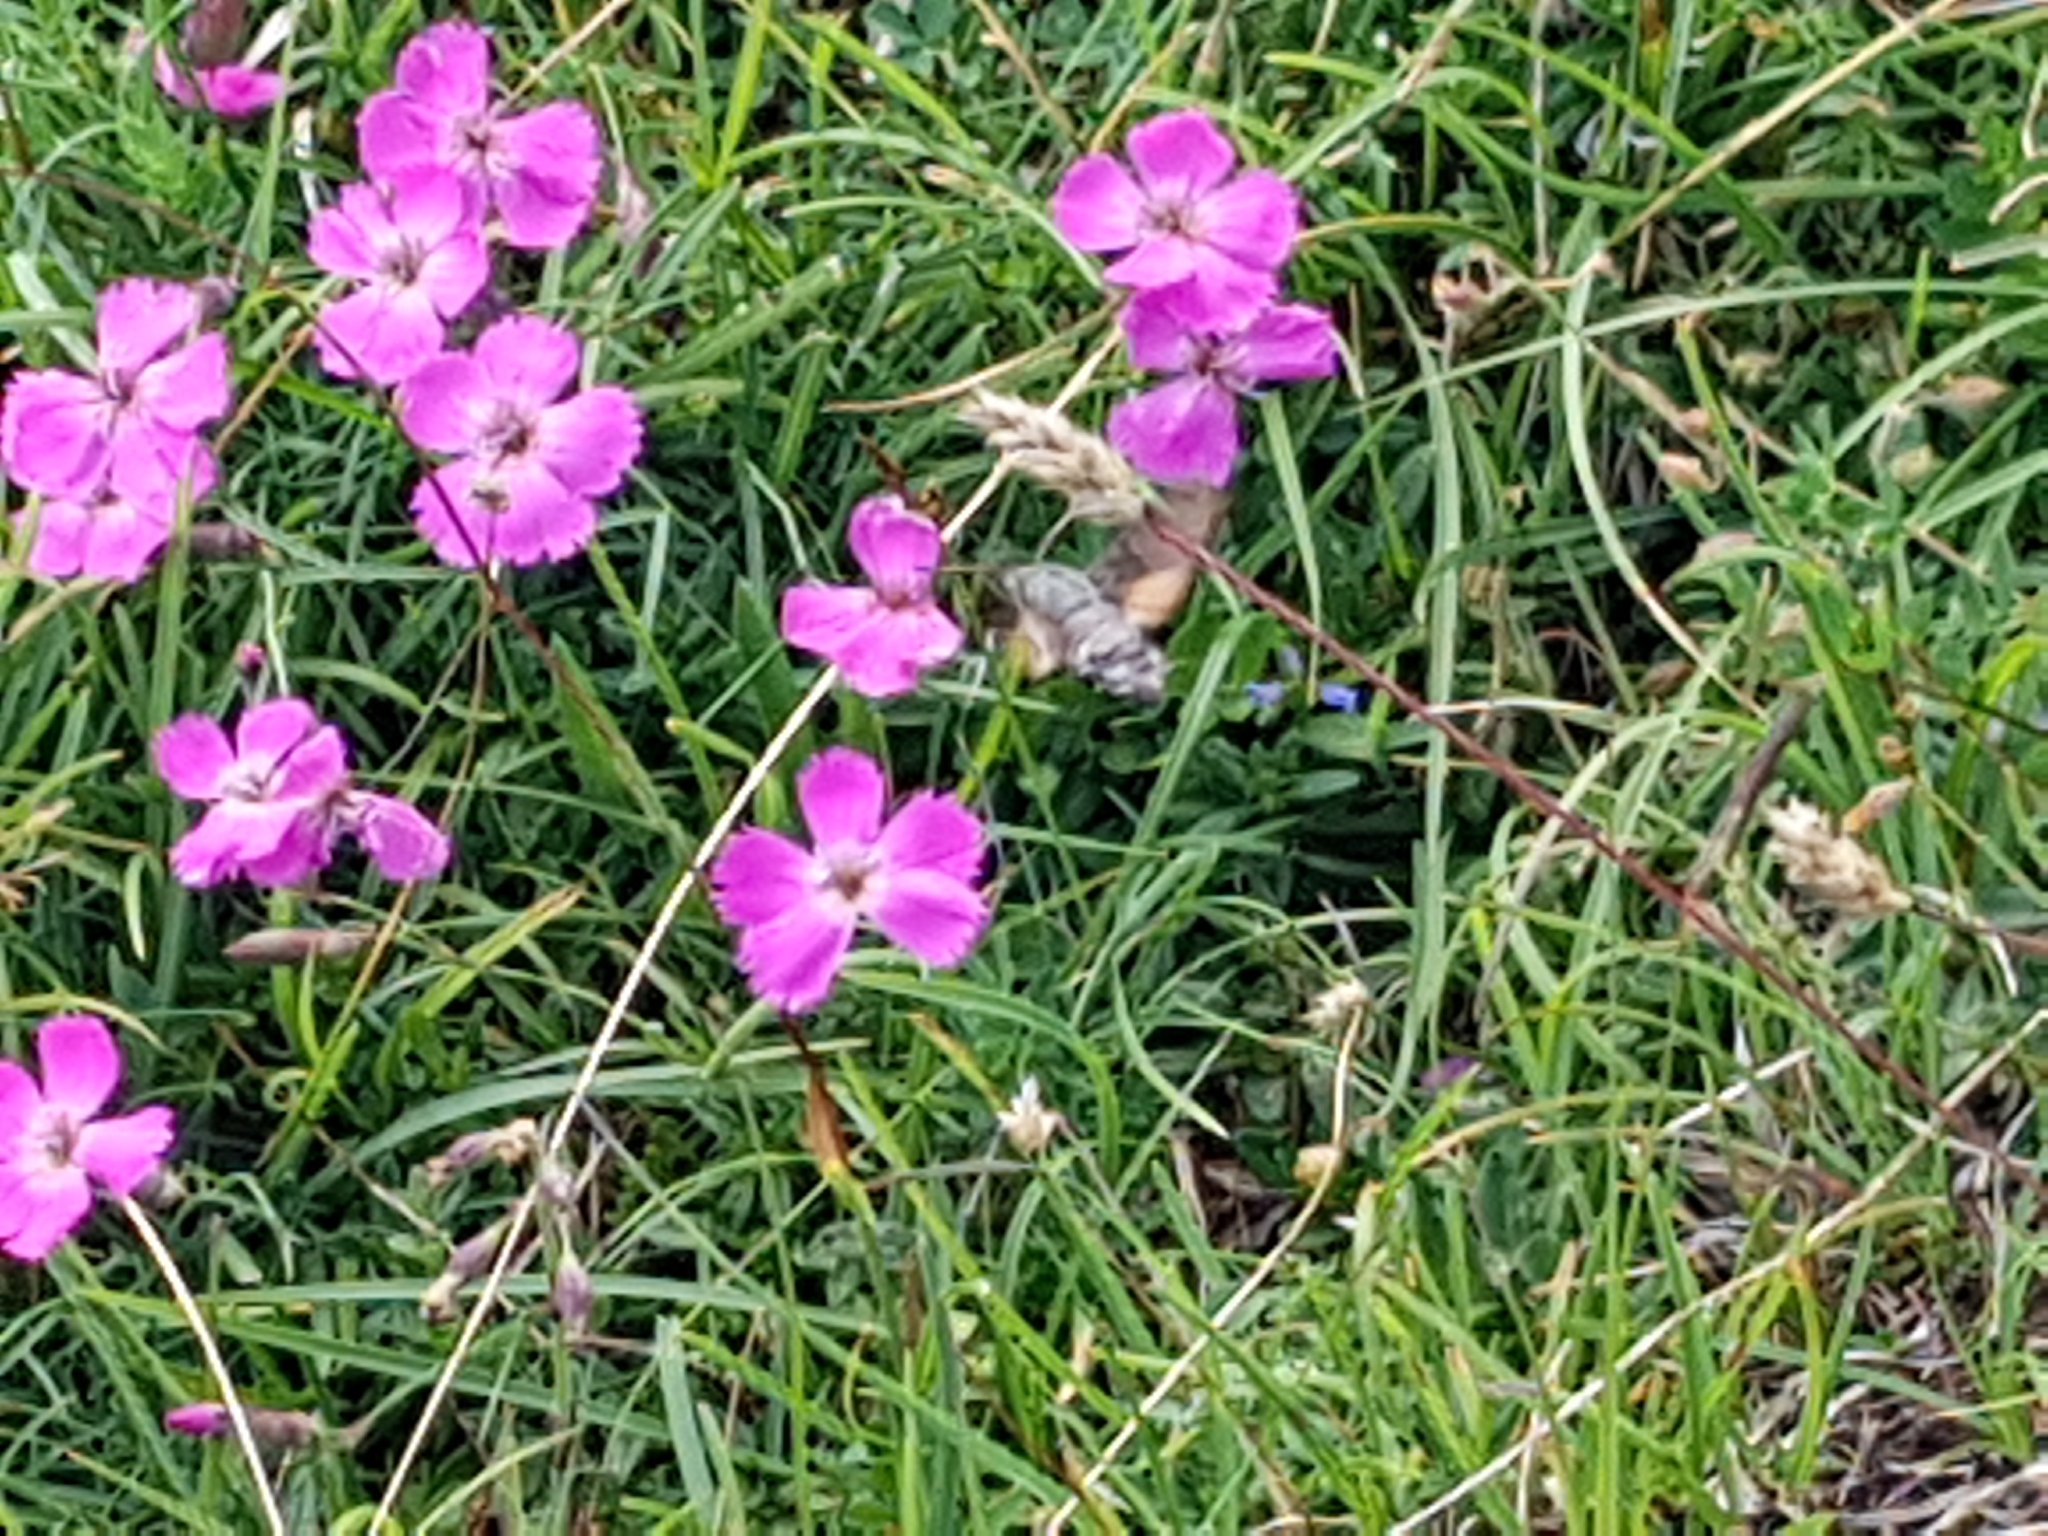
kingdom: Plantae
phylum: Tracheophyta
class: Magnoliopsida
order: Caryophyllales
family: Caryophyllaceae
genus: Dianthus
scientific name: Dianthus sylvestris
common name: Wood pink
